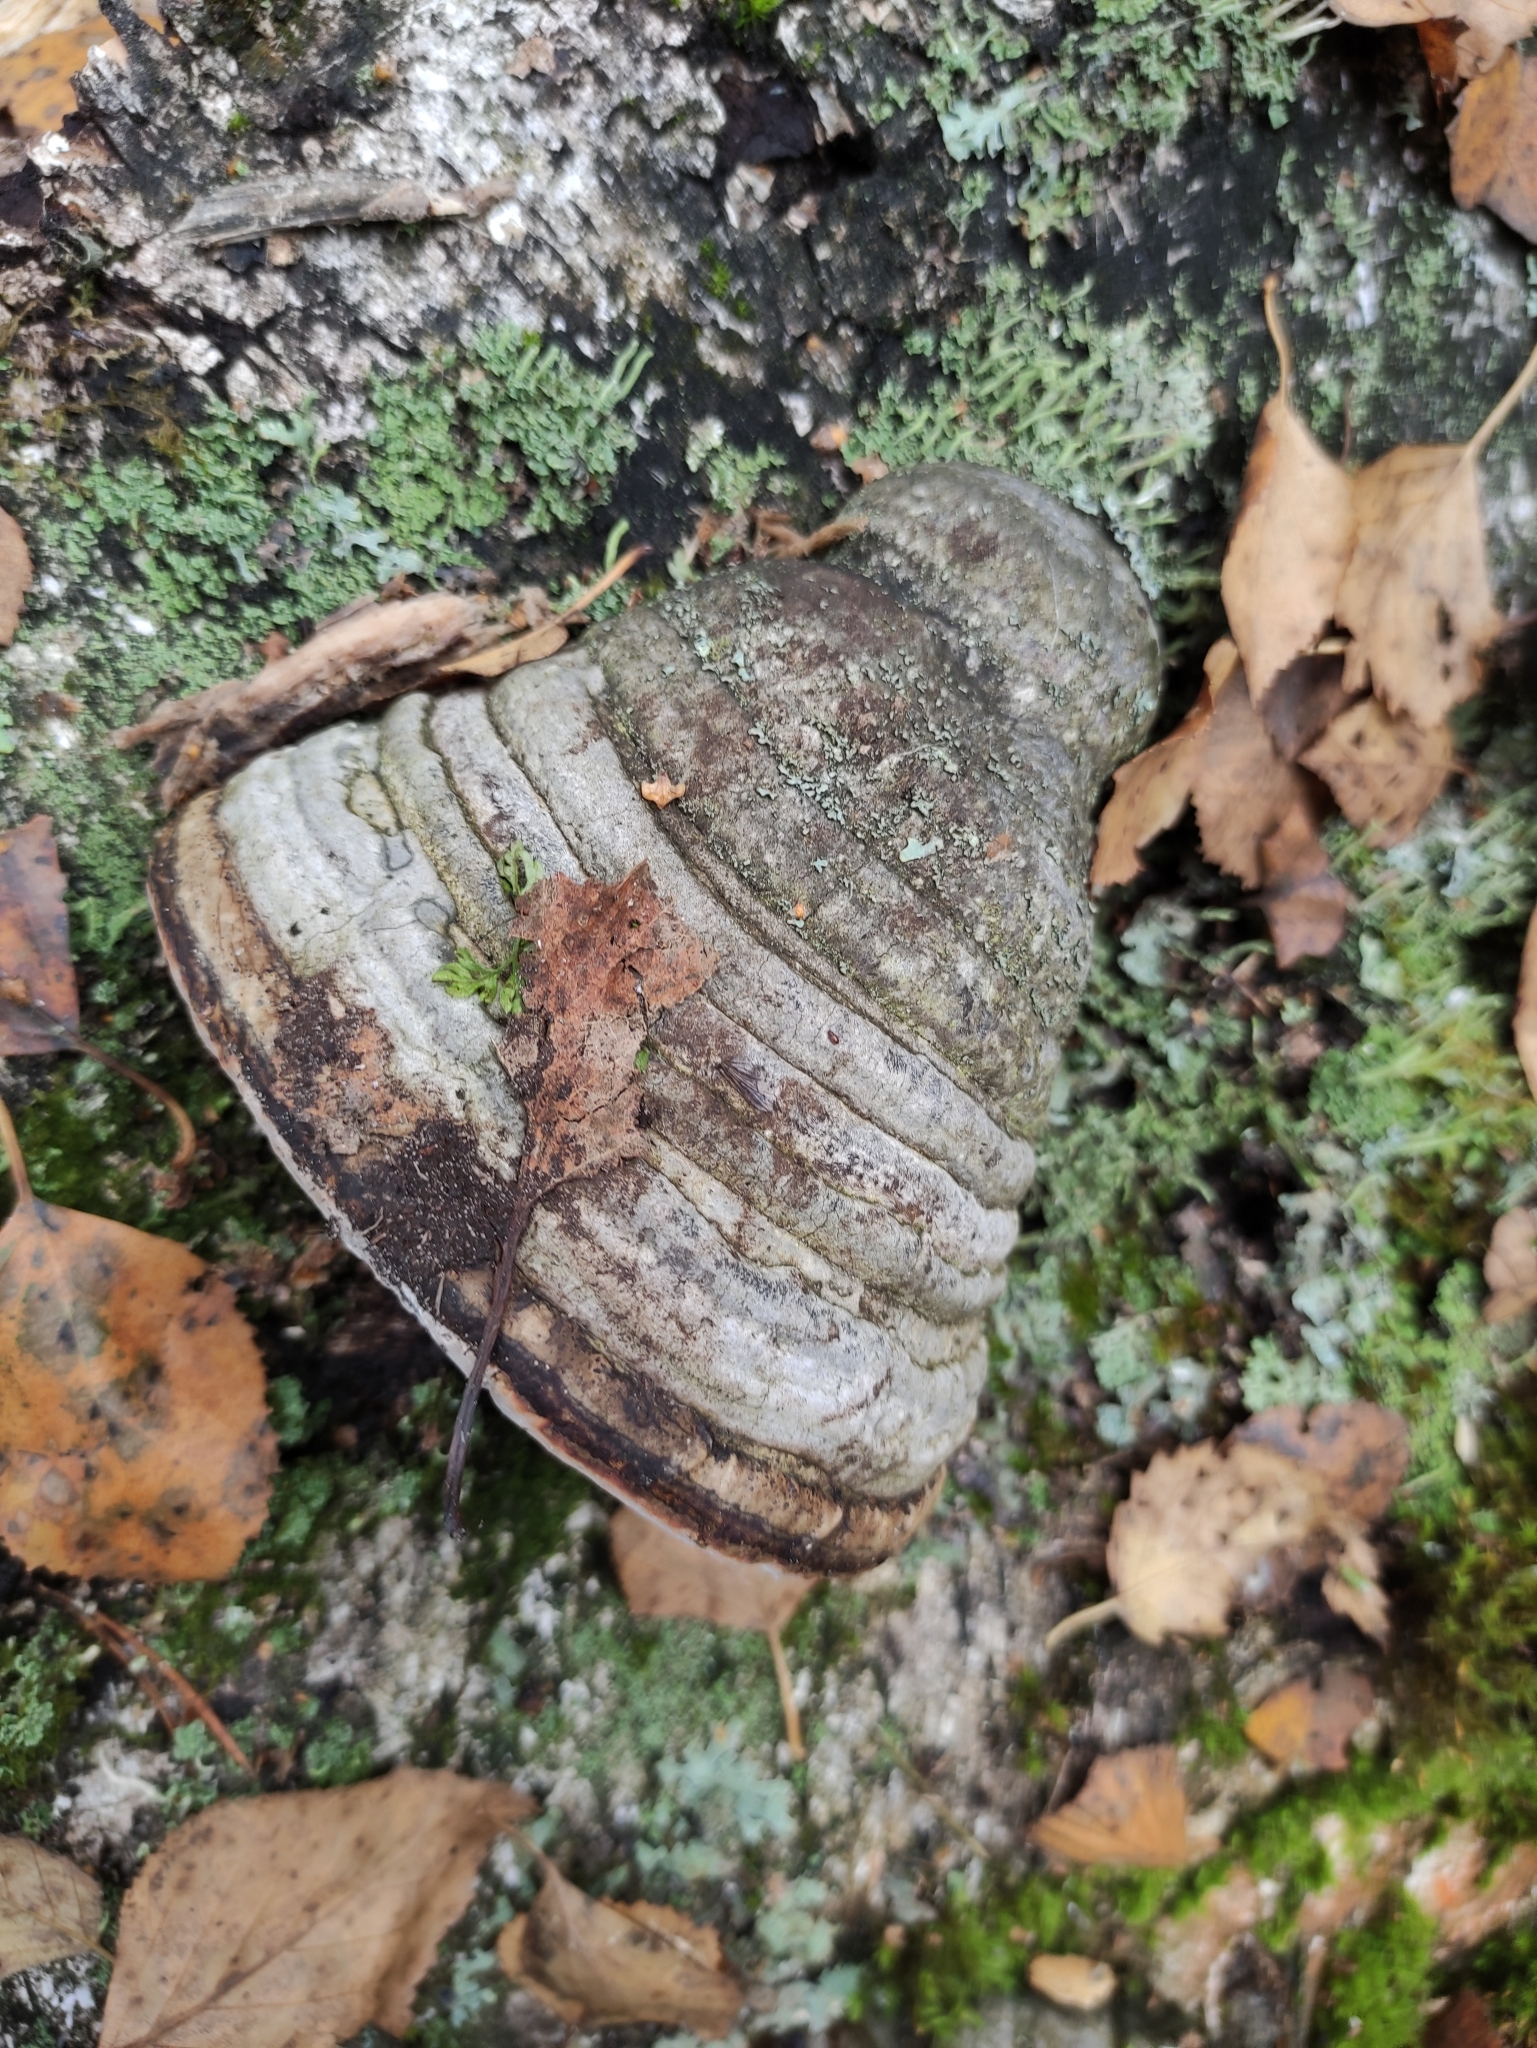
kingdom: Fungi
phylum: Basidiomycota
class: Agaricomycetes
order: Polyporales
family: Polyporaceae
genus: Fomes
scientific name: Fomes fomentarius
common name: Hoof fungus
